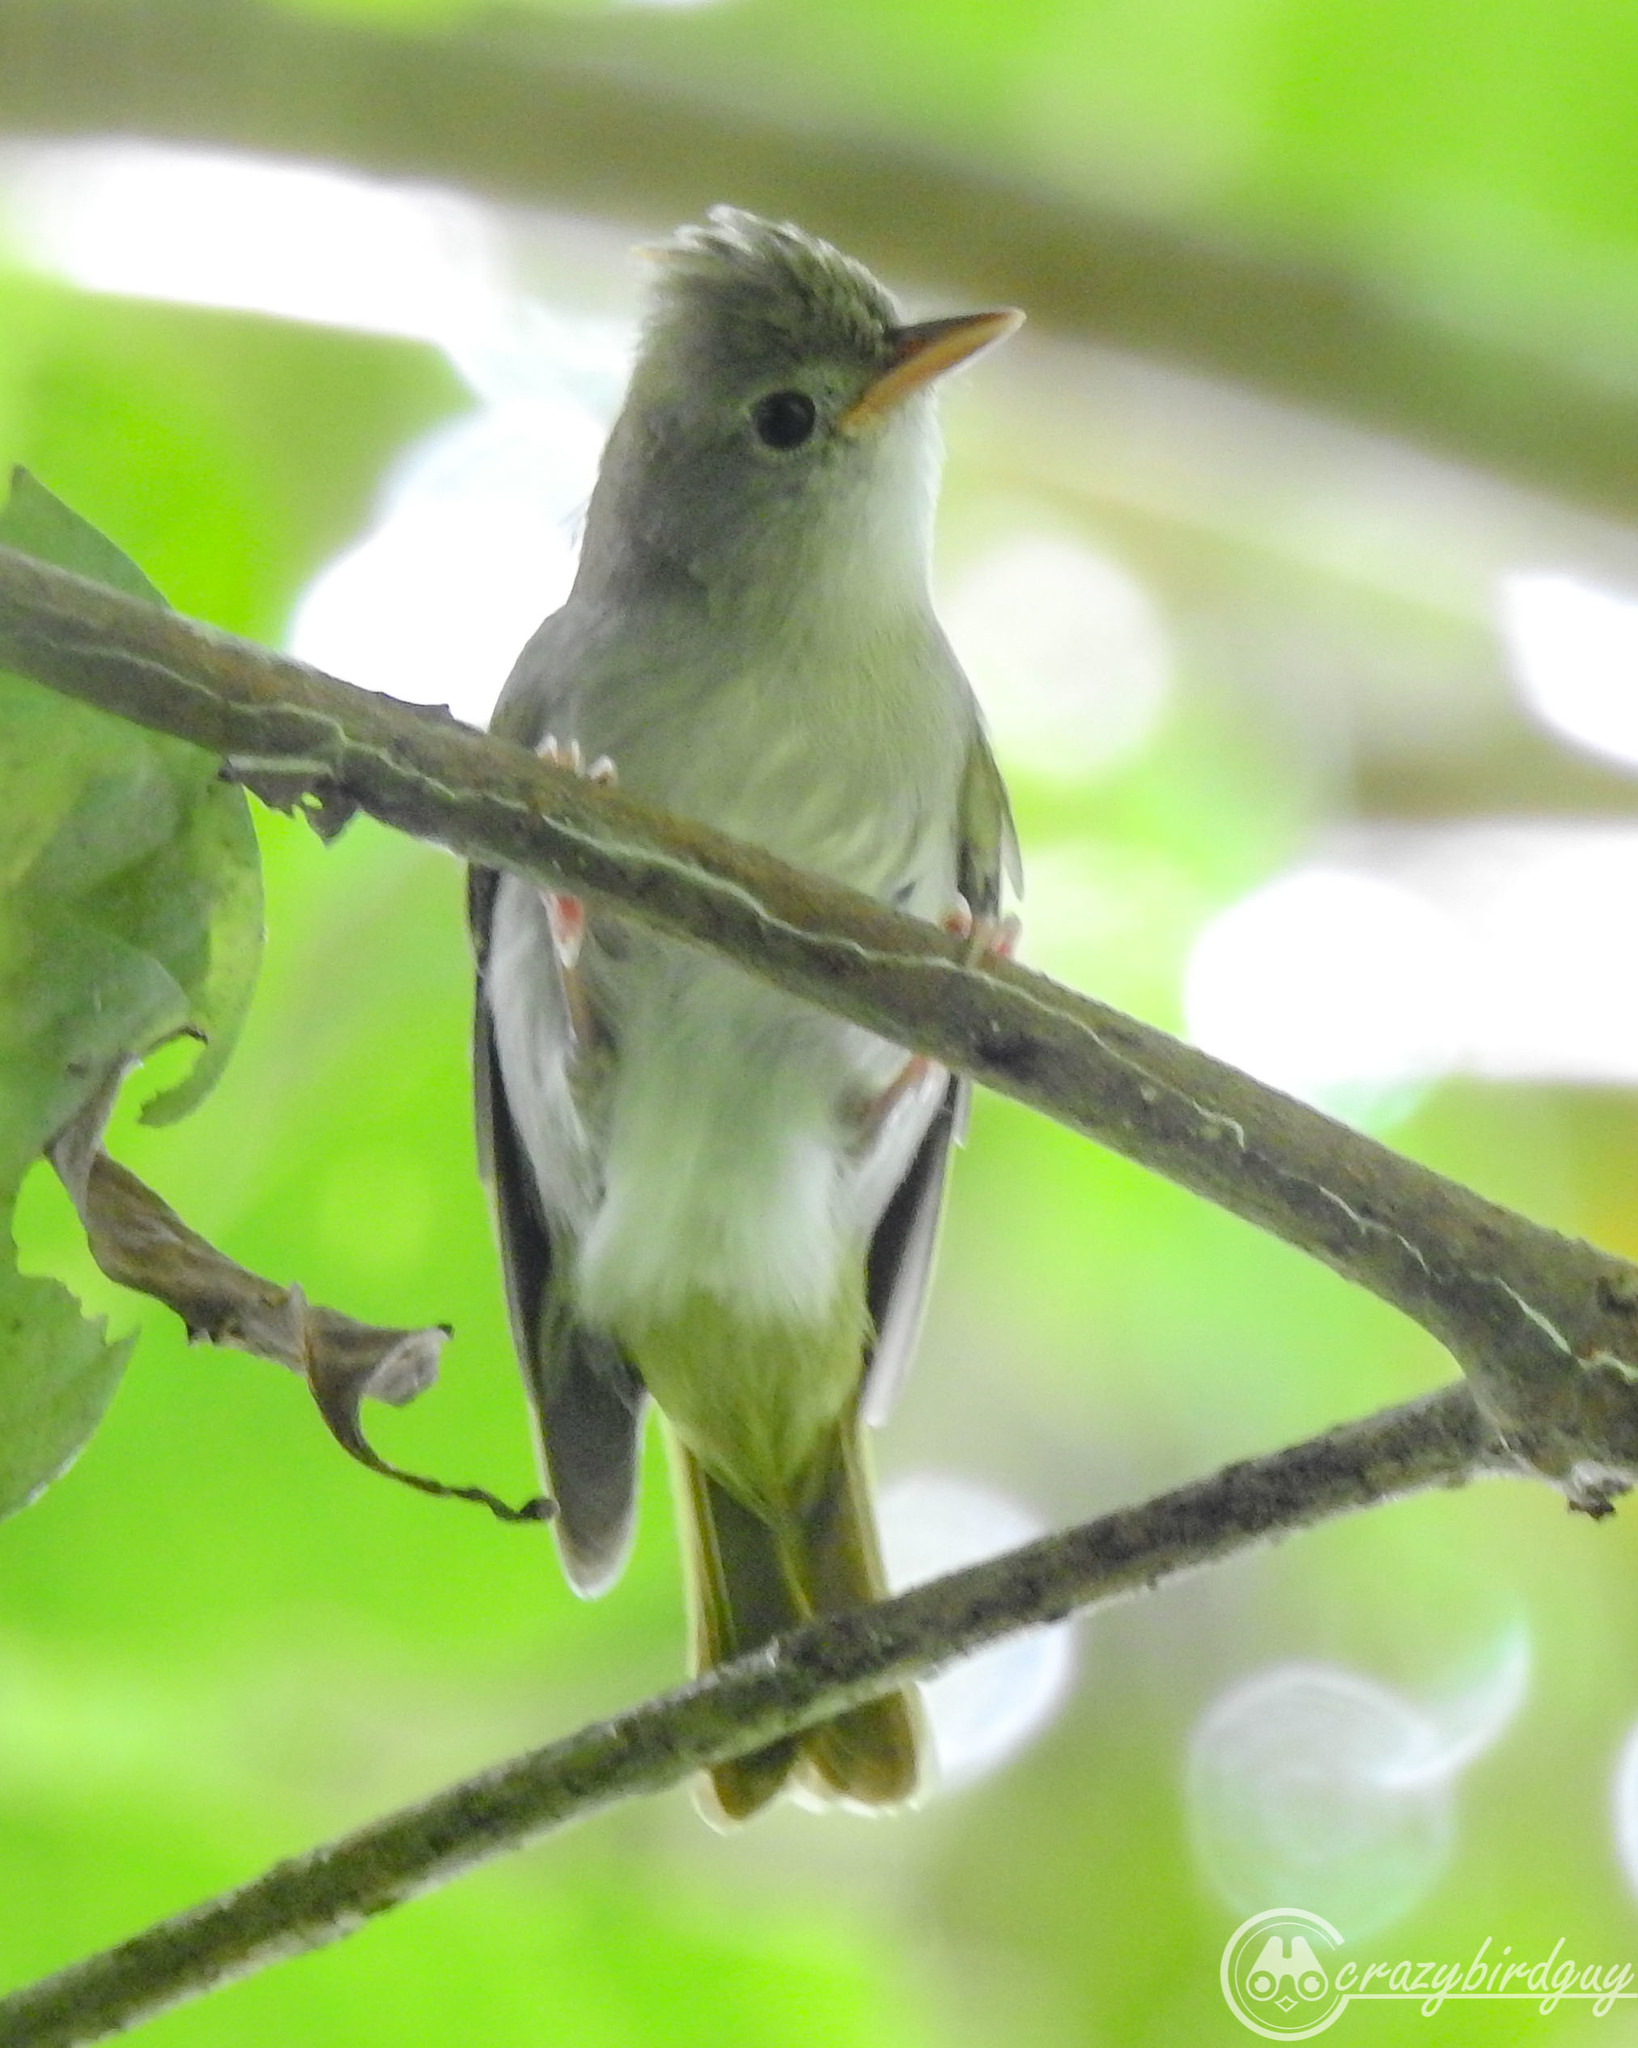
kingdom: Animalia
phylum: Chordata
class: Aves
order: Passeriformes
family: Vireonidae
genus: Erpornis
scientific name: Erpornis zantholeuca
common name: White-bellied erpornis
